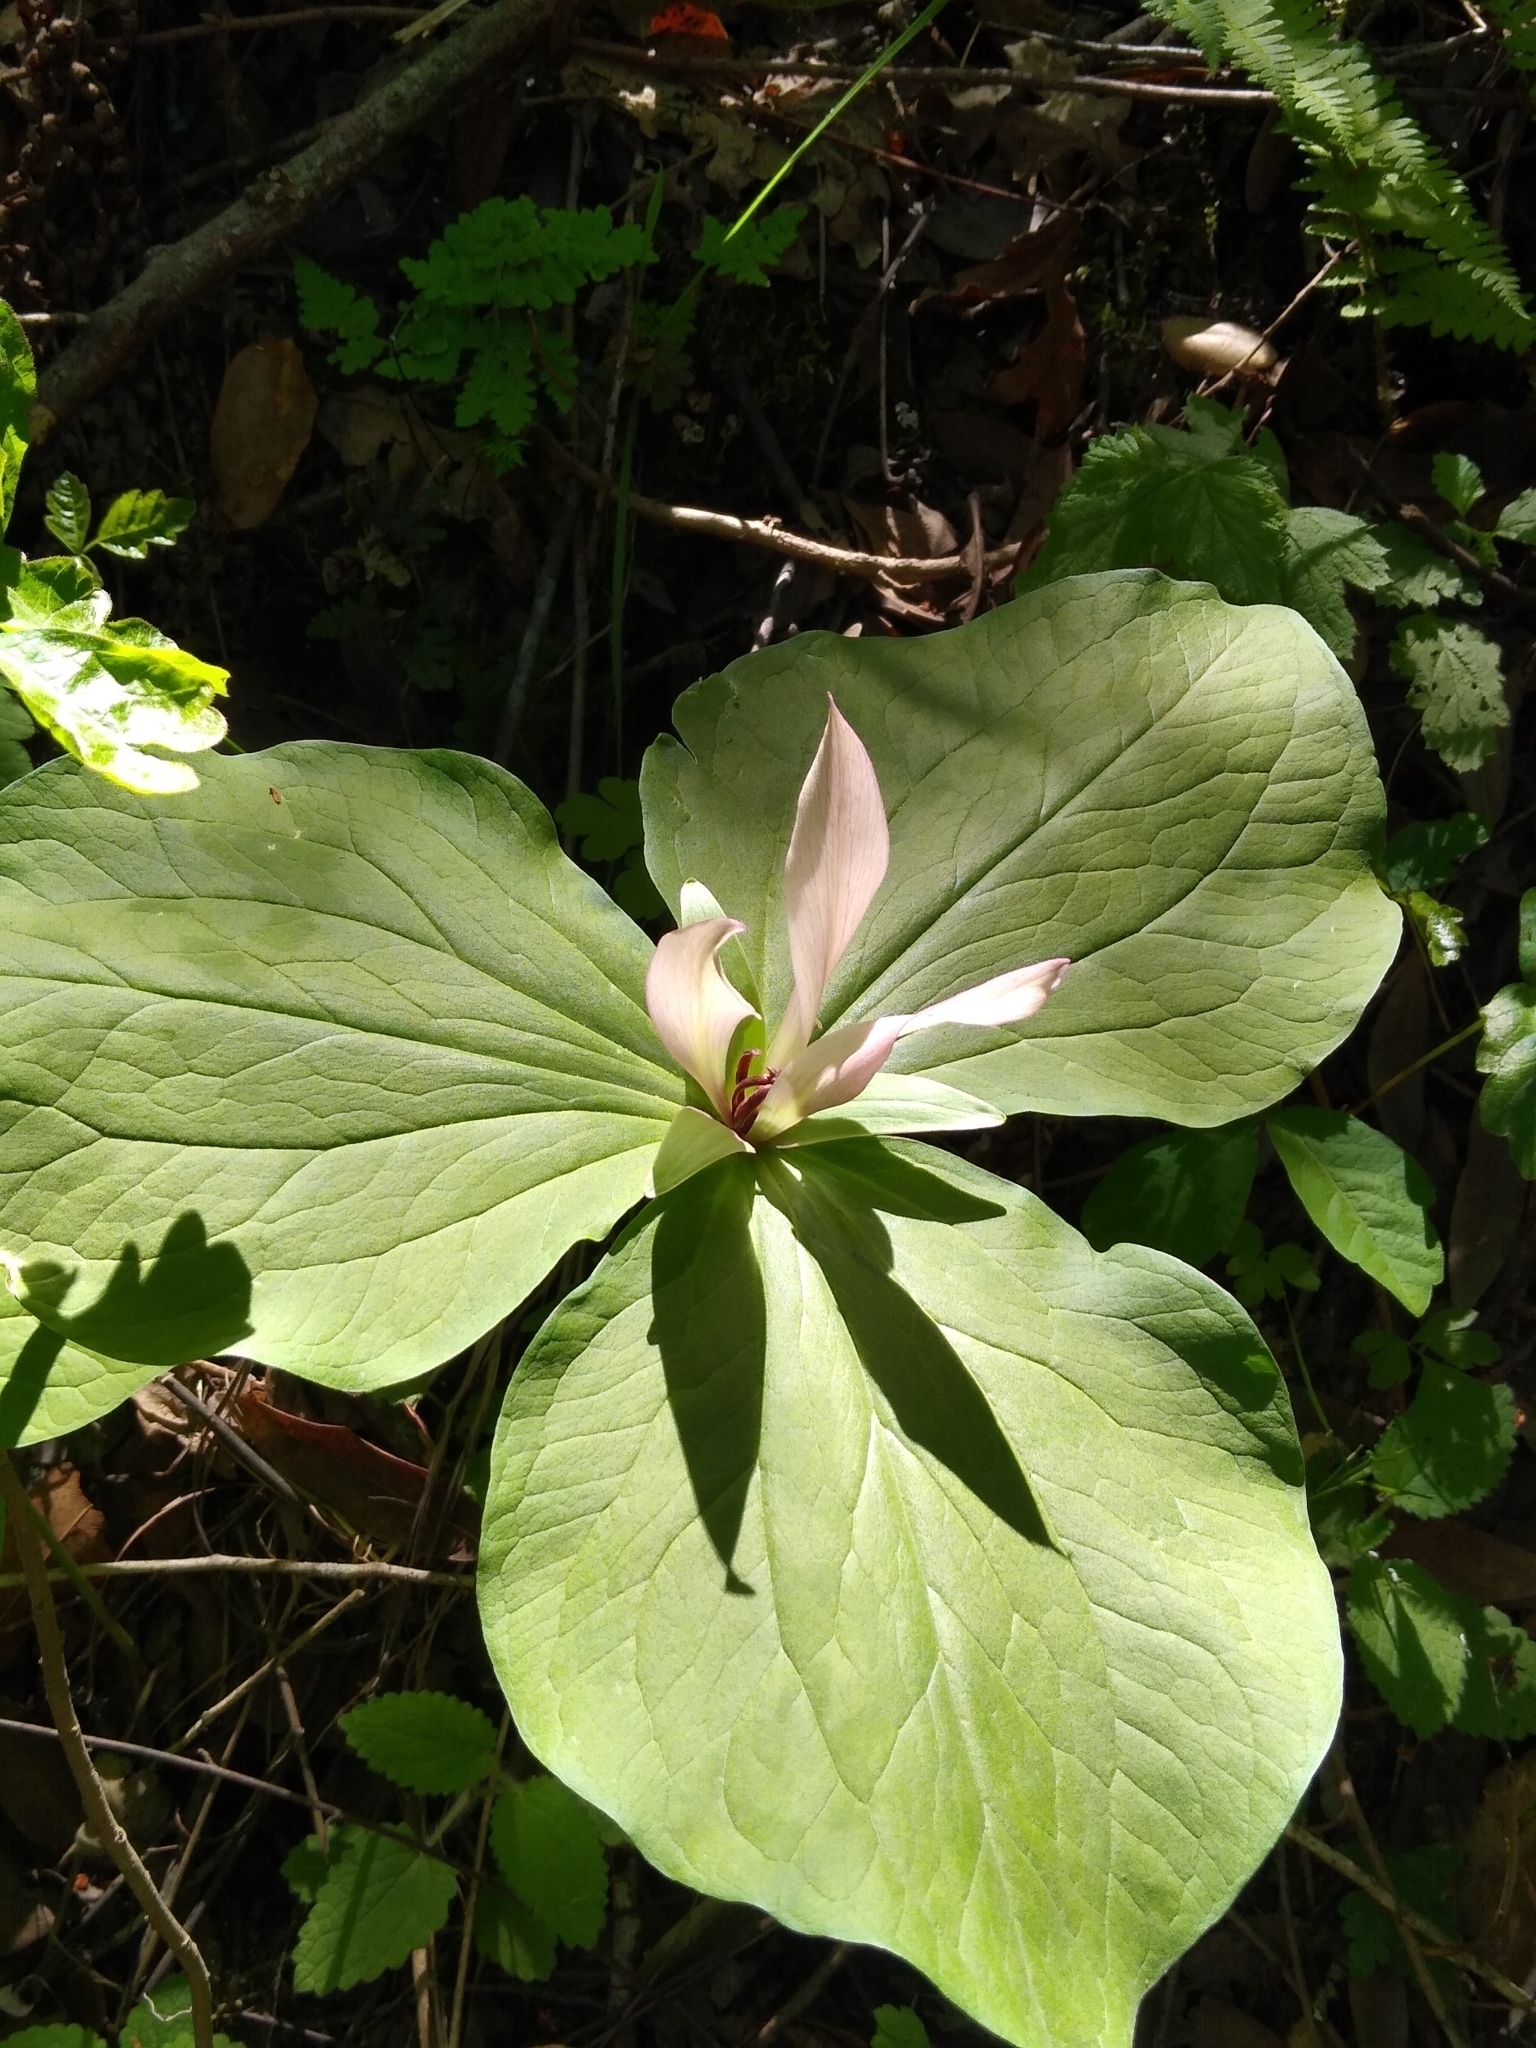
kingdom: Plantae
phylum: Tracheophyta
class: Liliopsida
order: Liliales
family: Melanthiaceae
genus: Trillium
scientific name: Trillium chloropetalum
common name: Giant trillium
